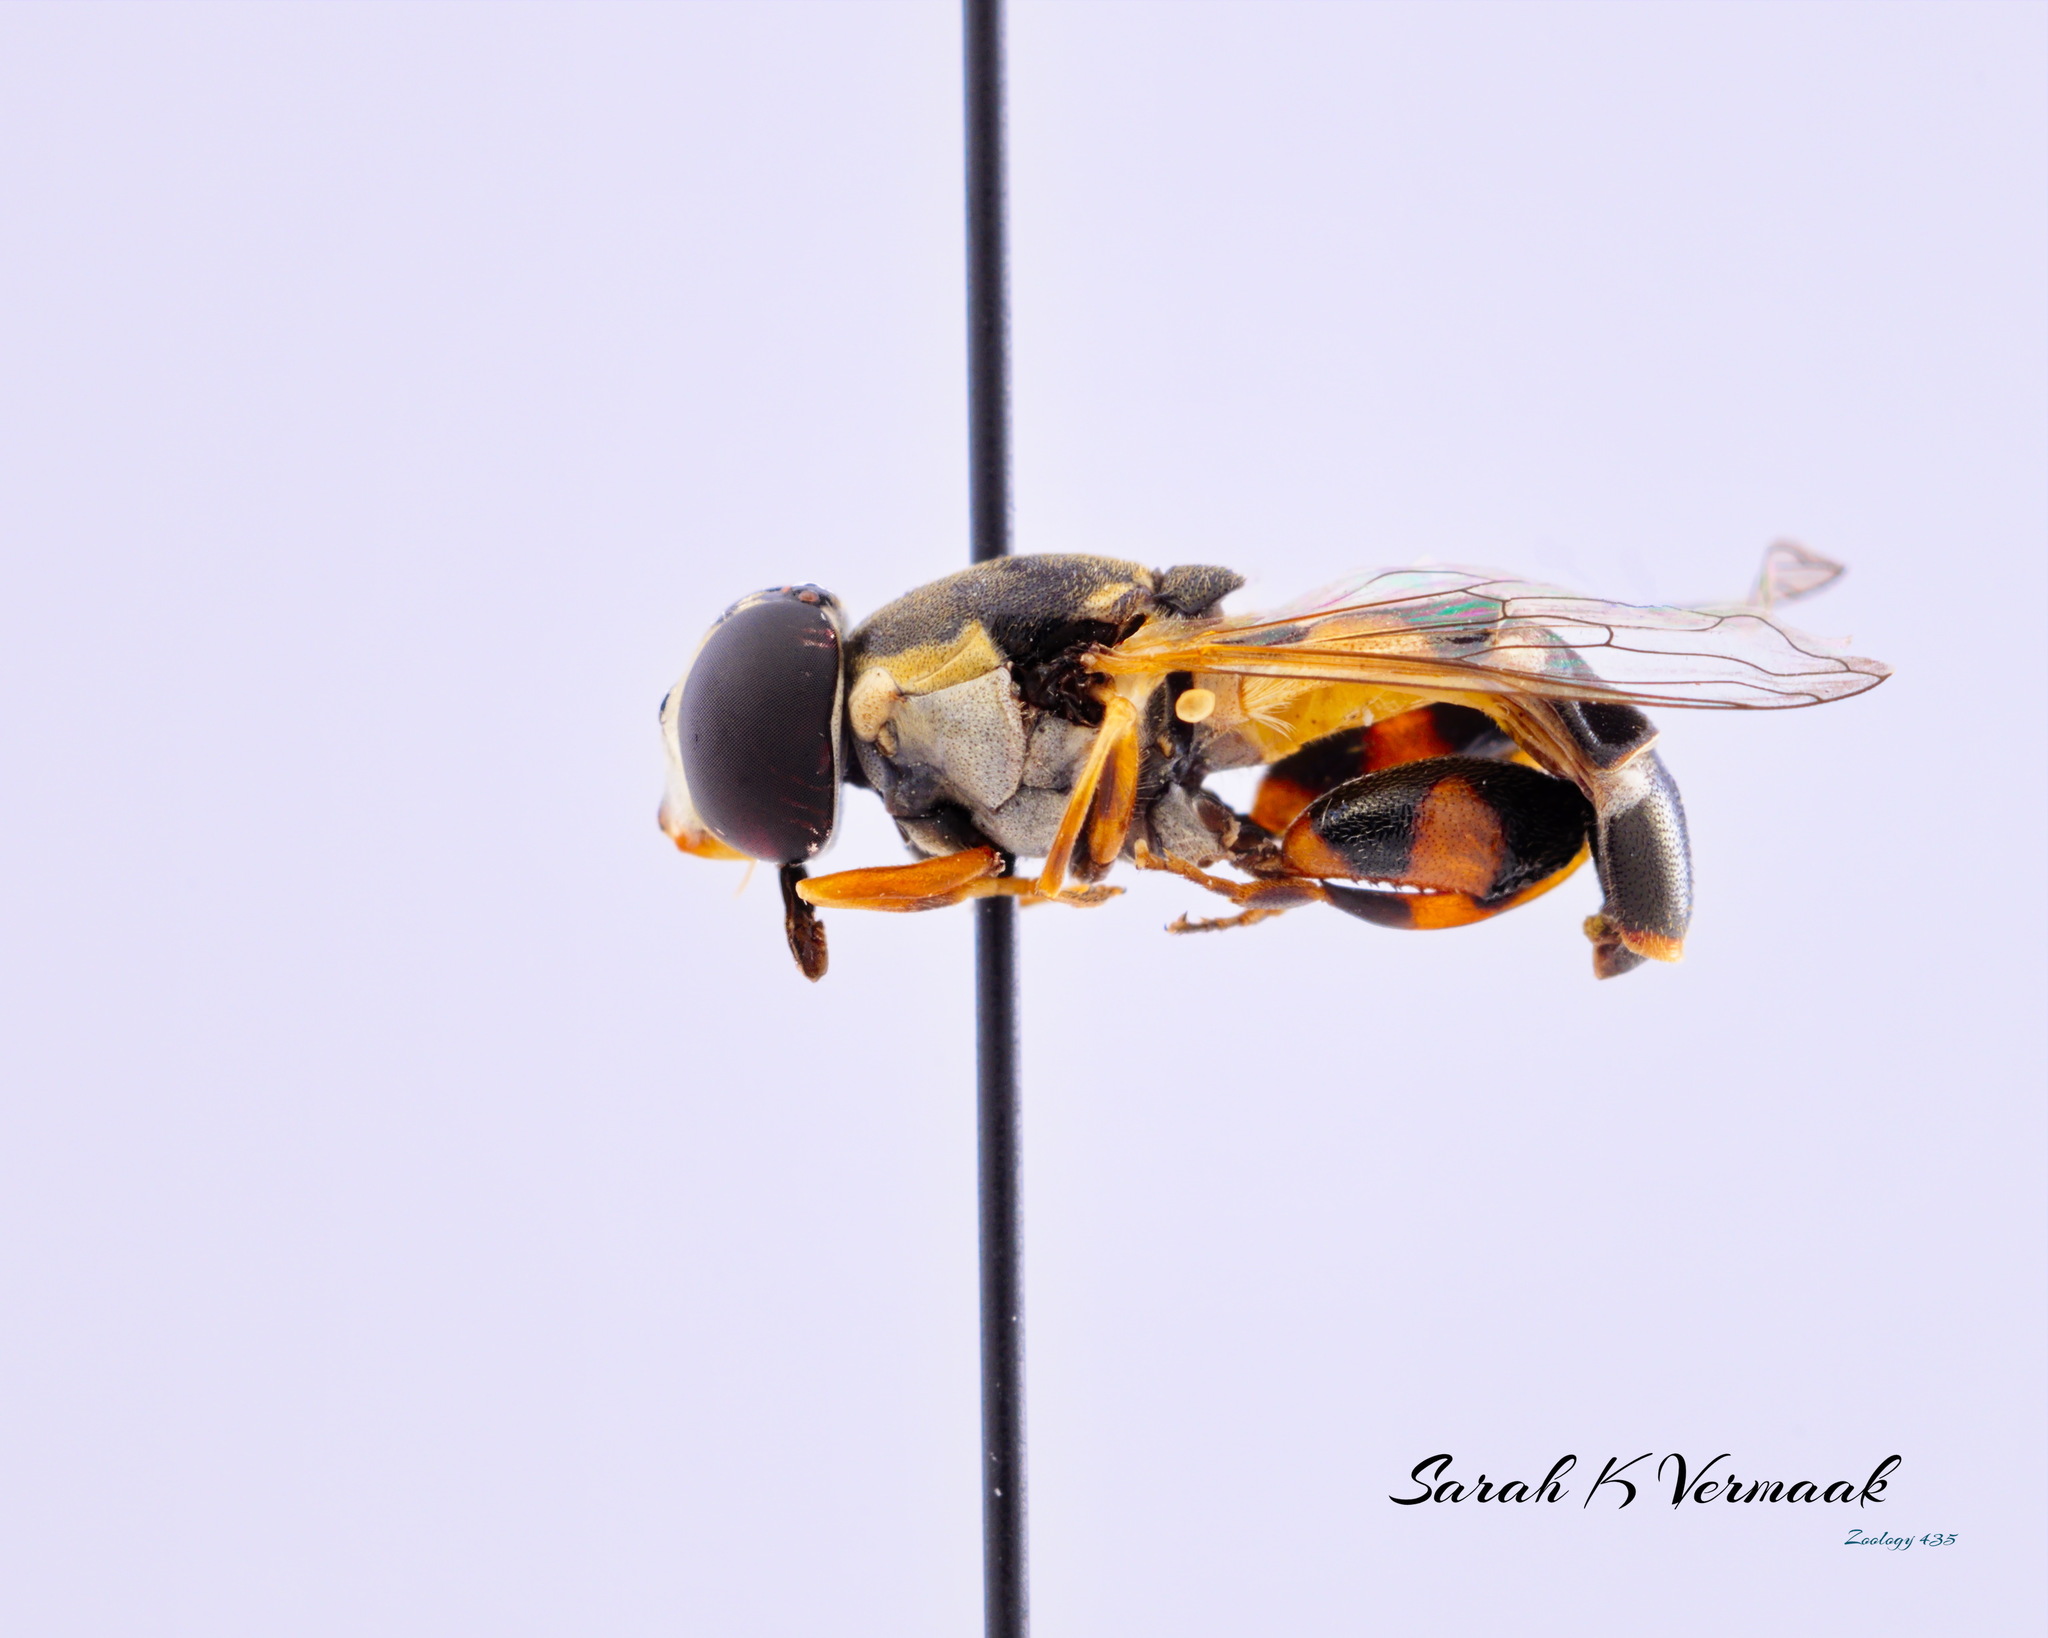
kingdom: Animalia
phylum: Arthropoda
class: Insecta
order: Diptera
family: Syrphidae
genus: Syritta
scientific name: Syritta pipiens
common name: Hover fly
